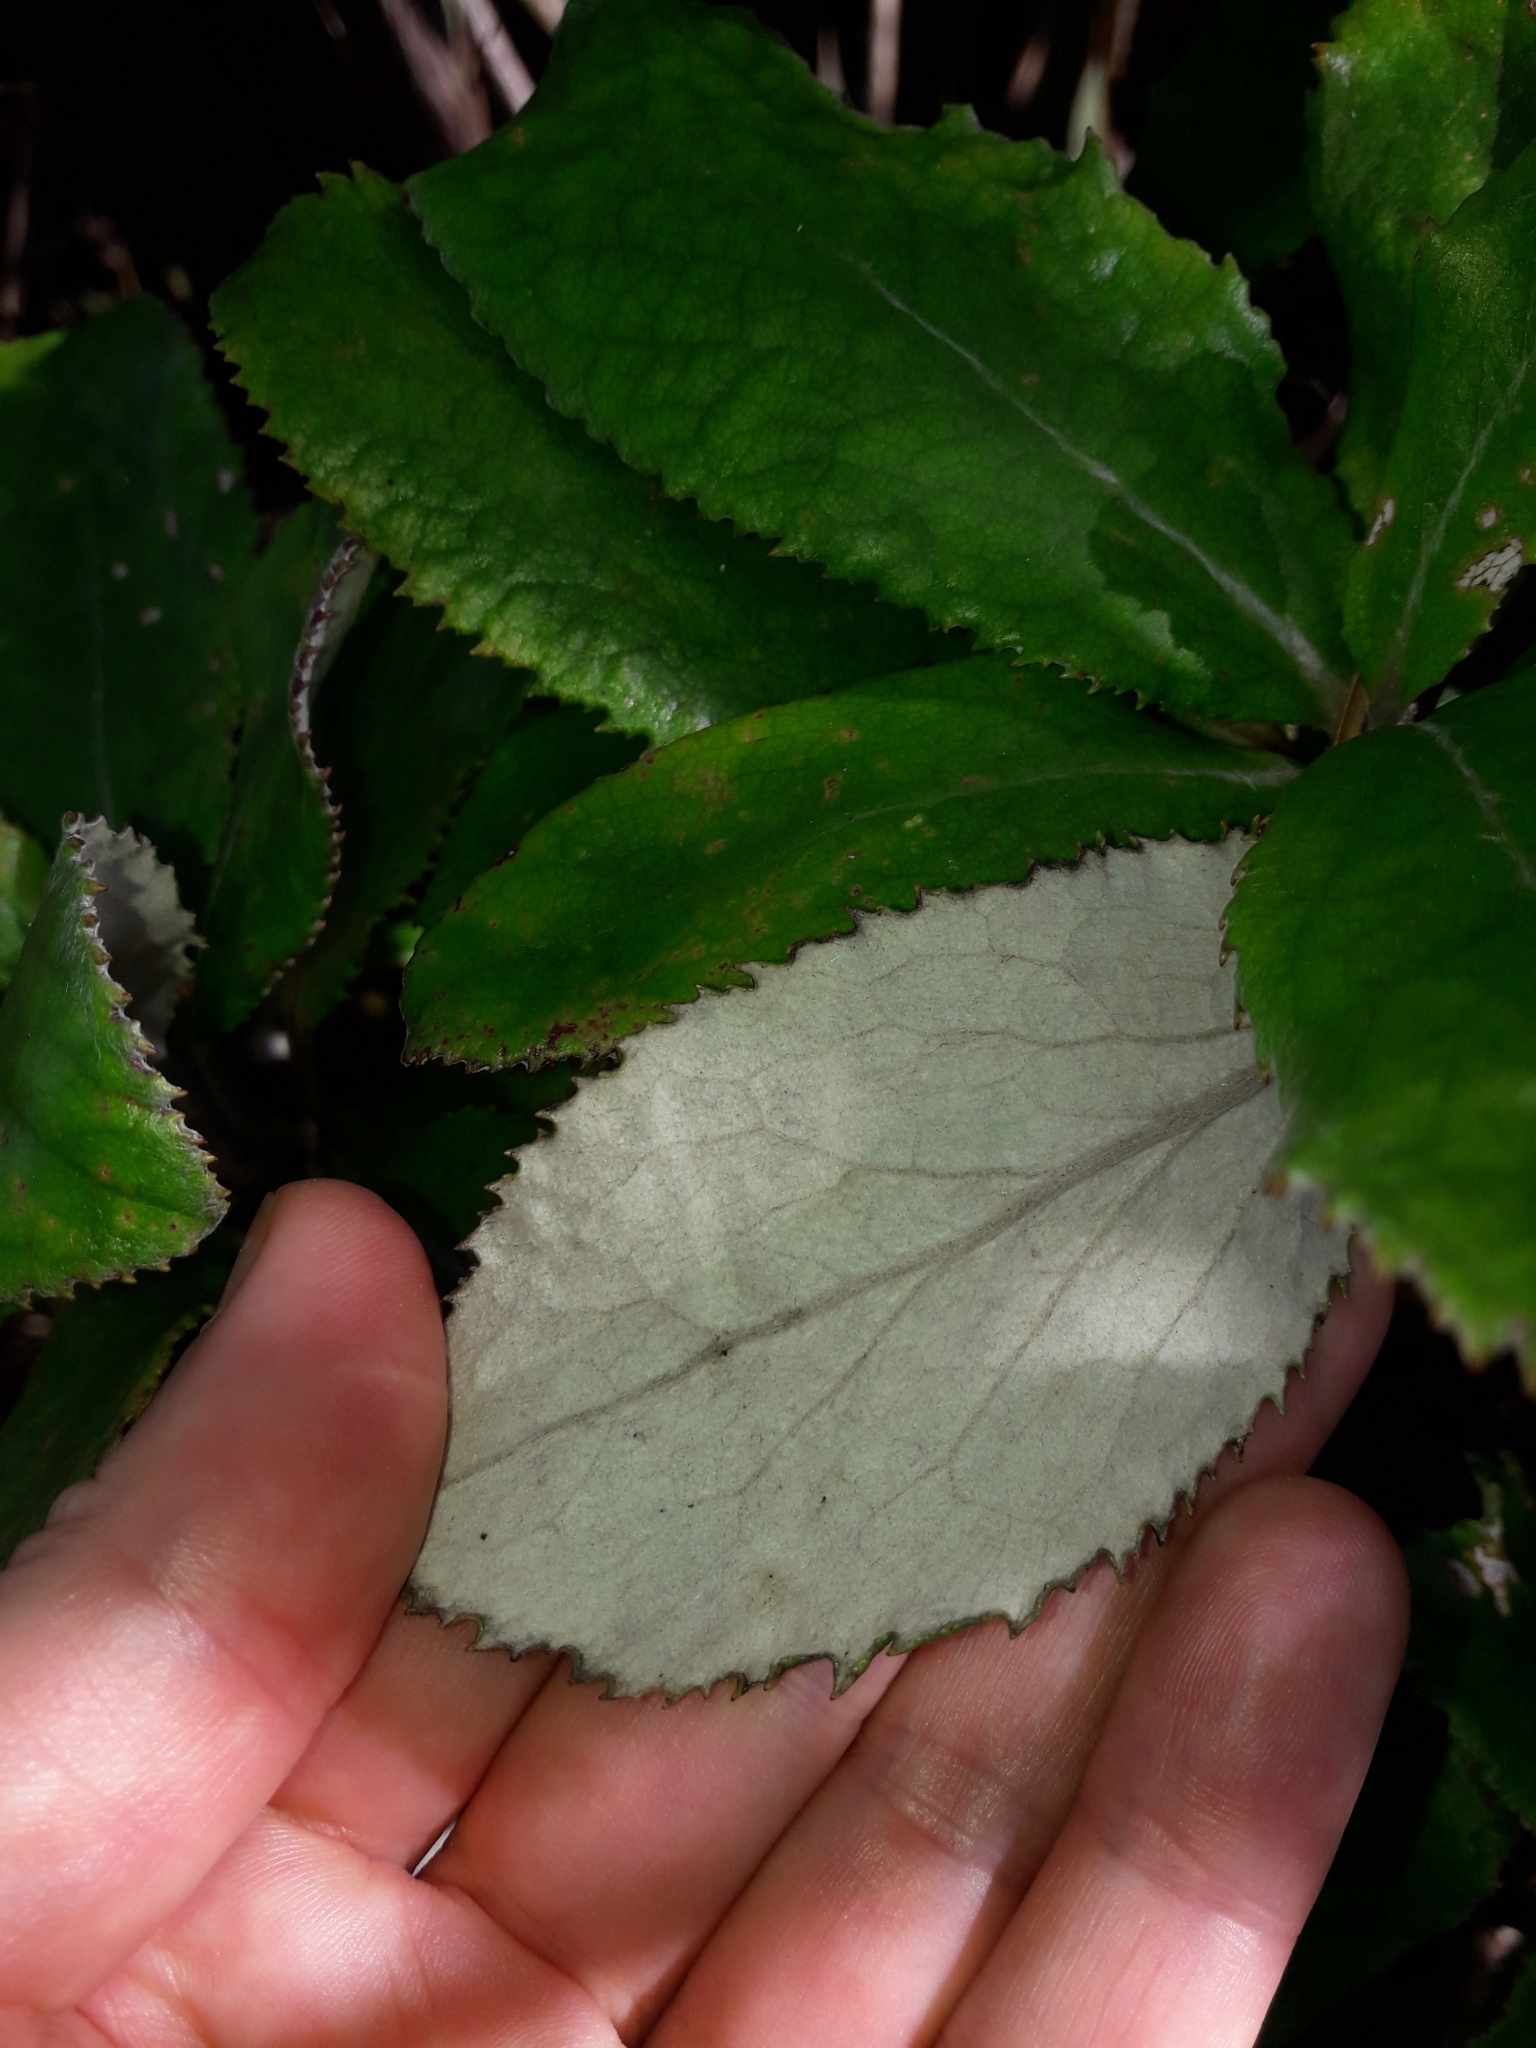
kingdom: Plantae
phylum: Tracheophyta
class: Magnoliopsida
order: Asterales
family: Asteraceae
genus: Macrolearia
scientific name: Macrolearia colensoi
